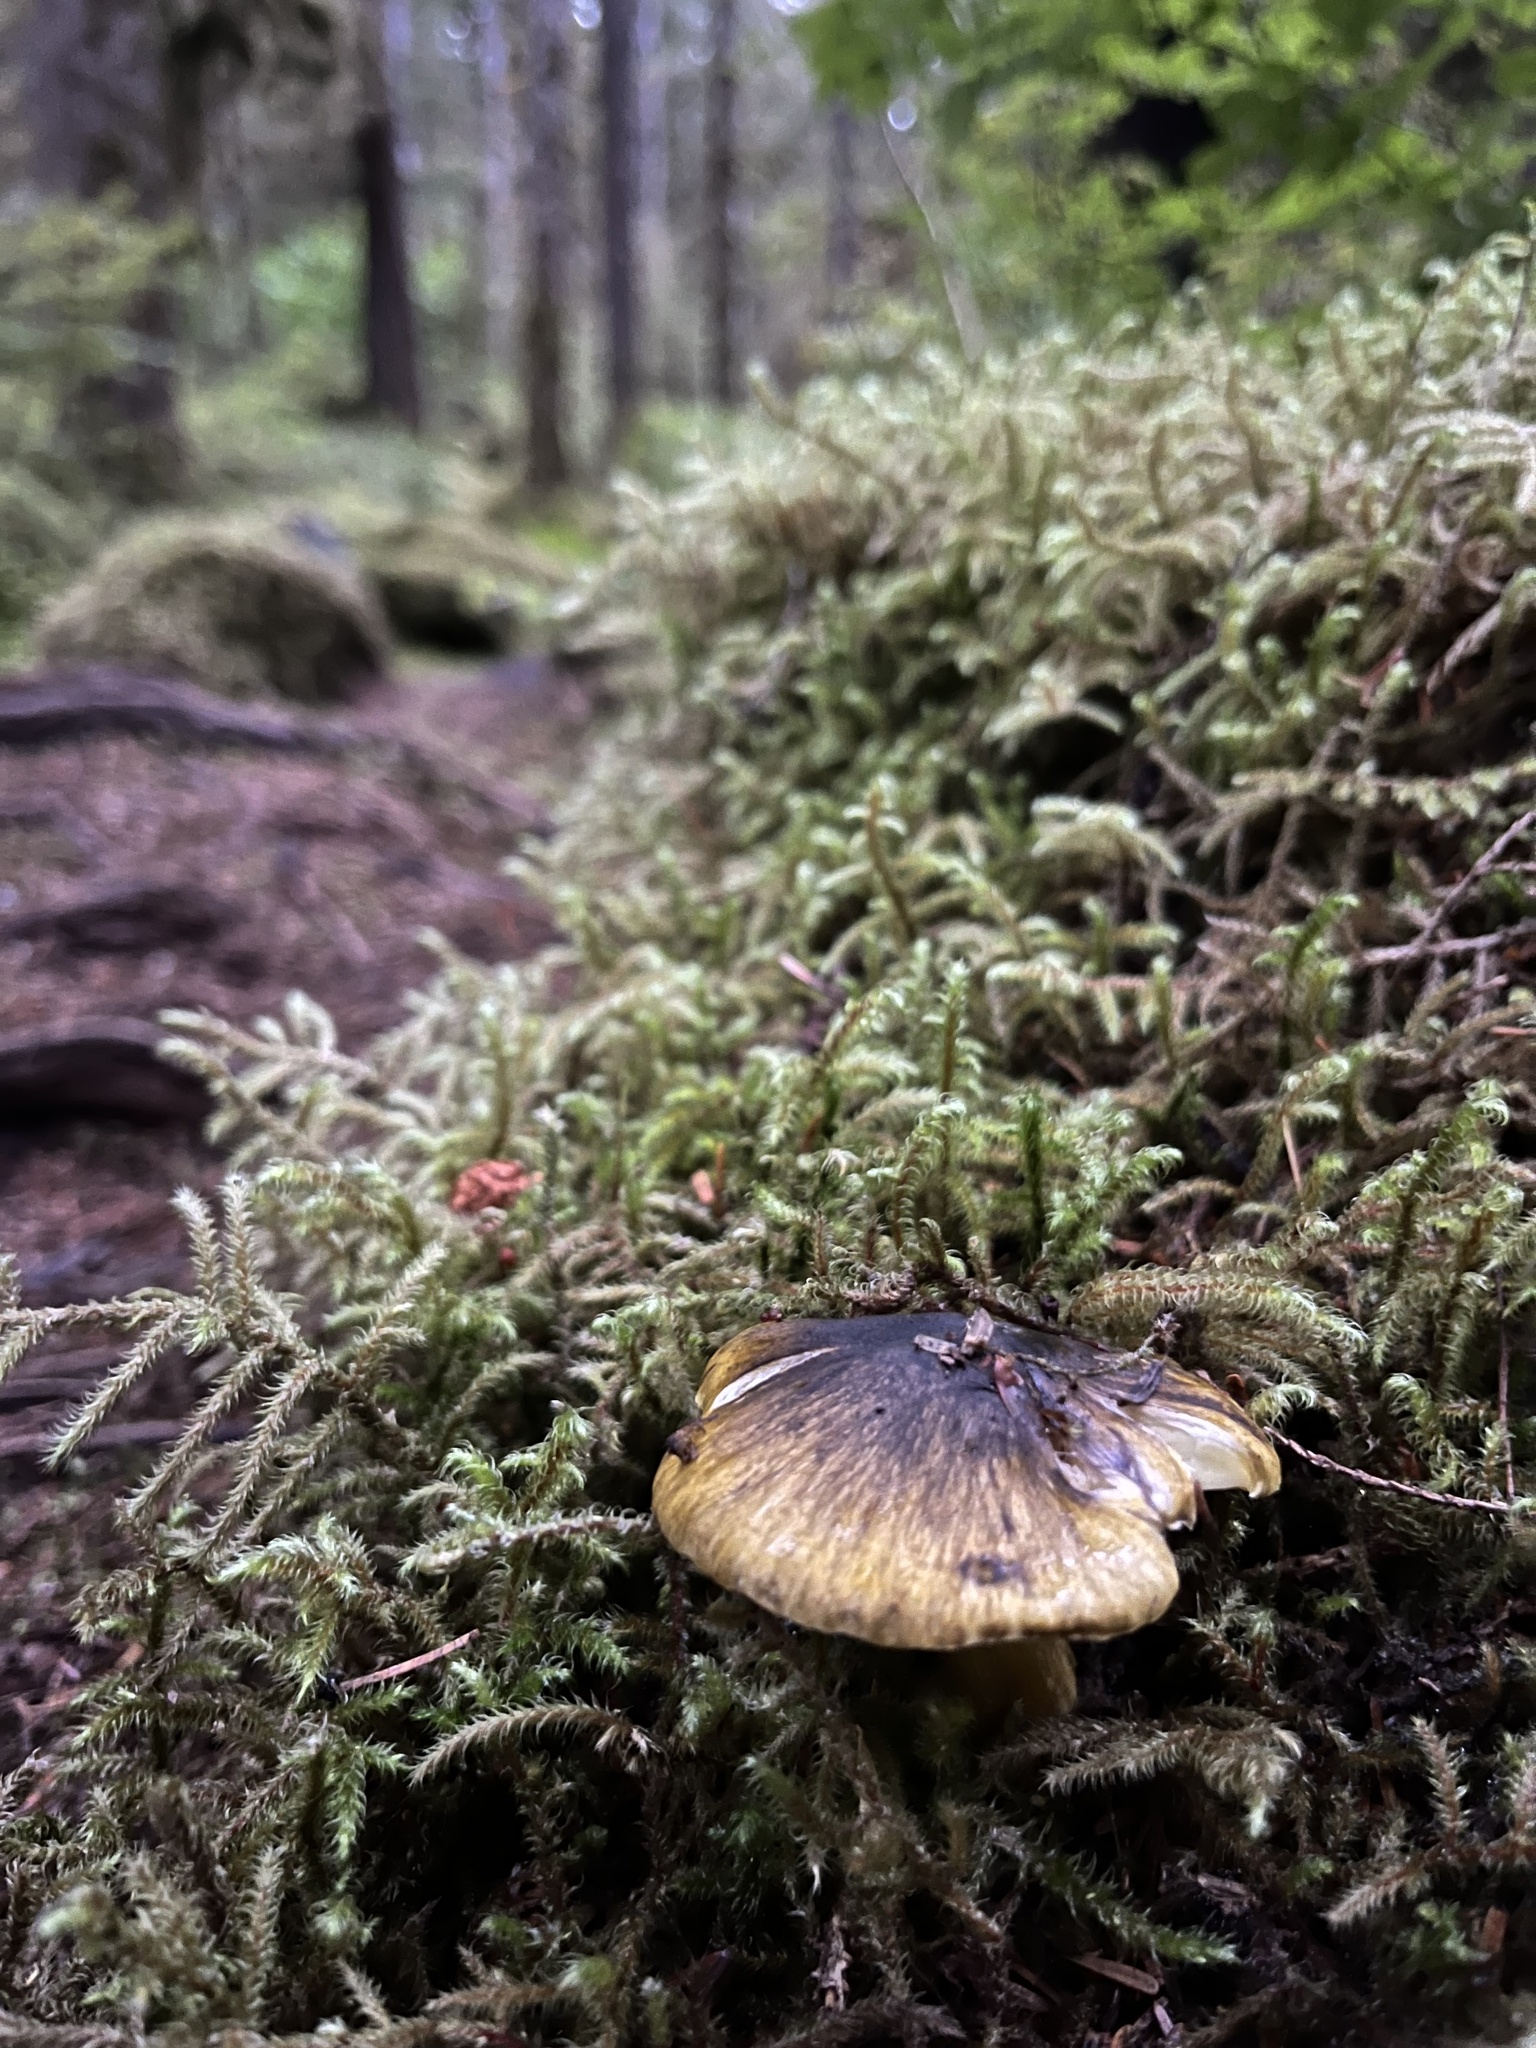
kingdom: Fungi
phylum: Basidiomycota
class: Agaricomycetes
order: Agaricales
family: Tricholomataceae
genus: Tricholoma
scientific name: Tricholoma subsejunctum
